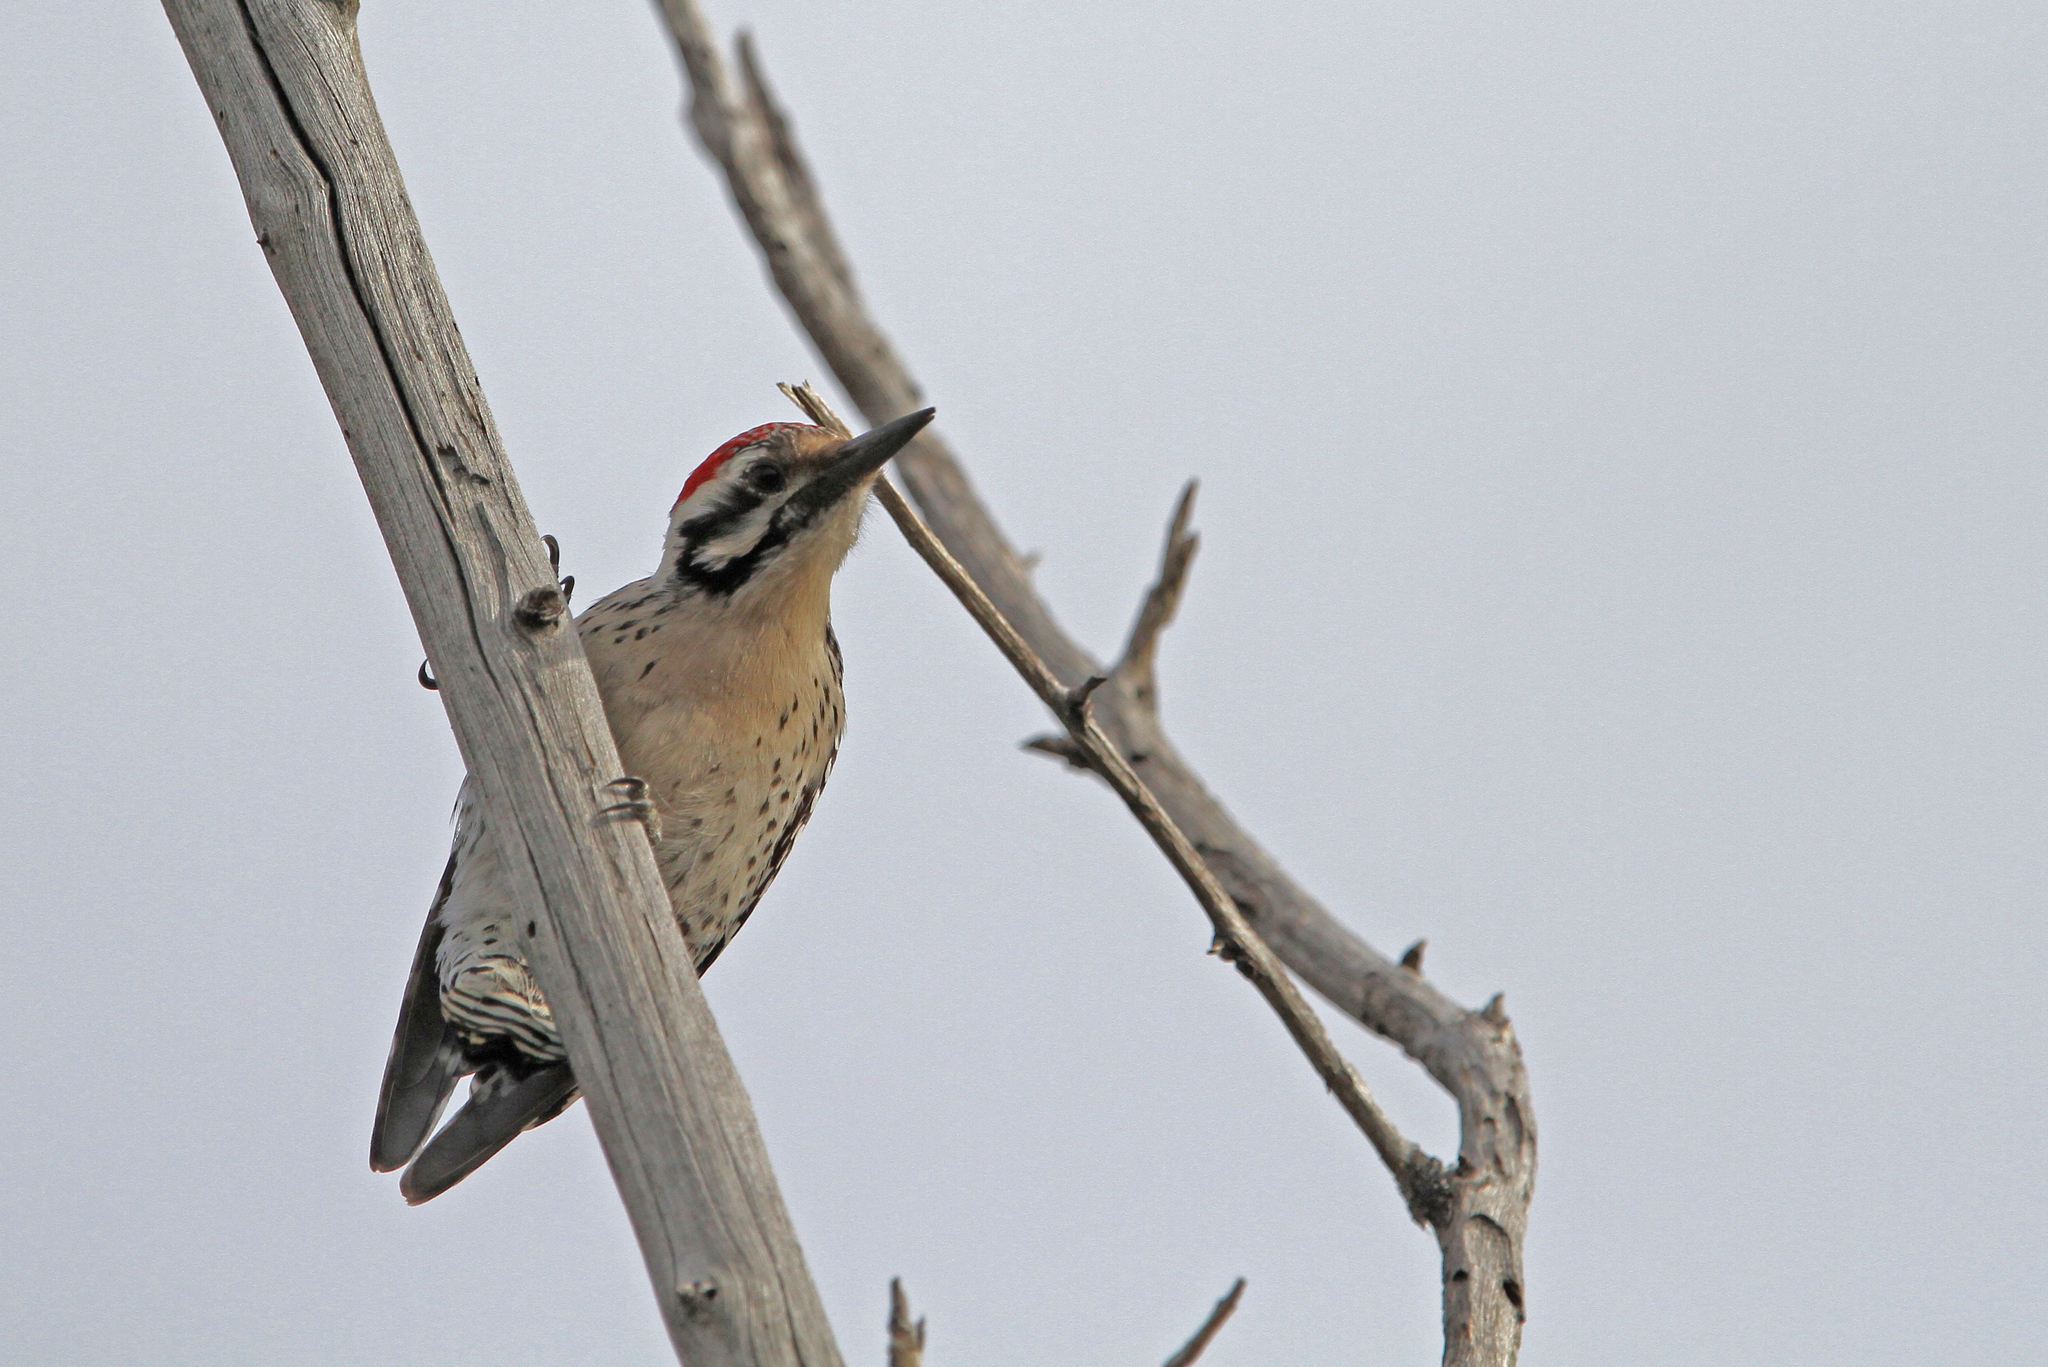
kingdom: Animalia
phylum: Chordata
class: Aves
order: Piciformes
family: Picidae
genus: Dryobates
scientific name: Dryobates scalaris
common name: Ladder-backed woodpecker
